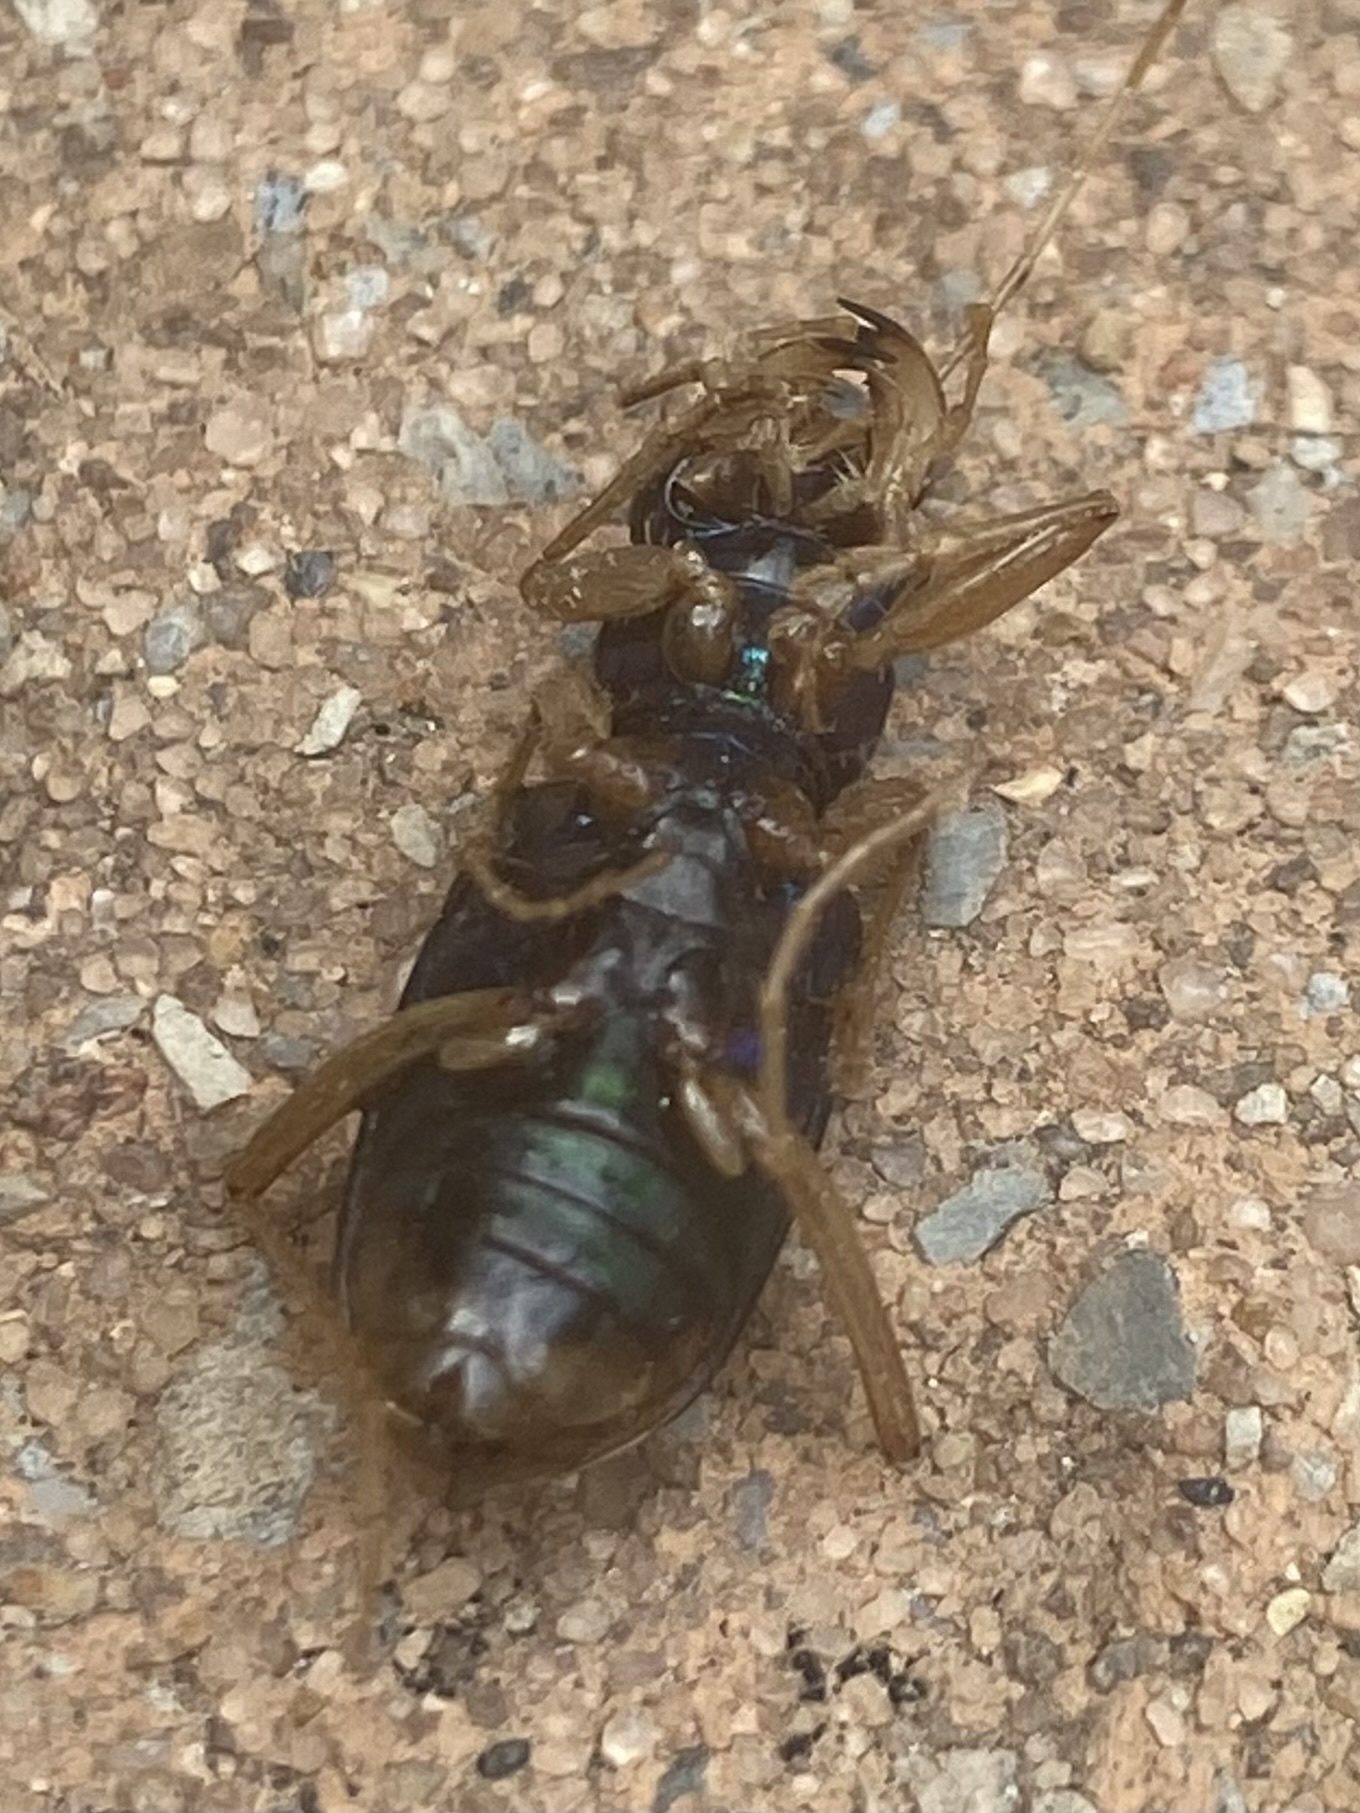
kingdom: Animalia
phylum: Arthropoda
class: Insecta
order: Coleoptera
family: Carabidae
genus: Tetracha
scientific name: Tetracha carolina
